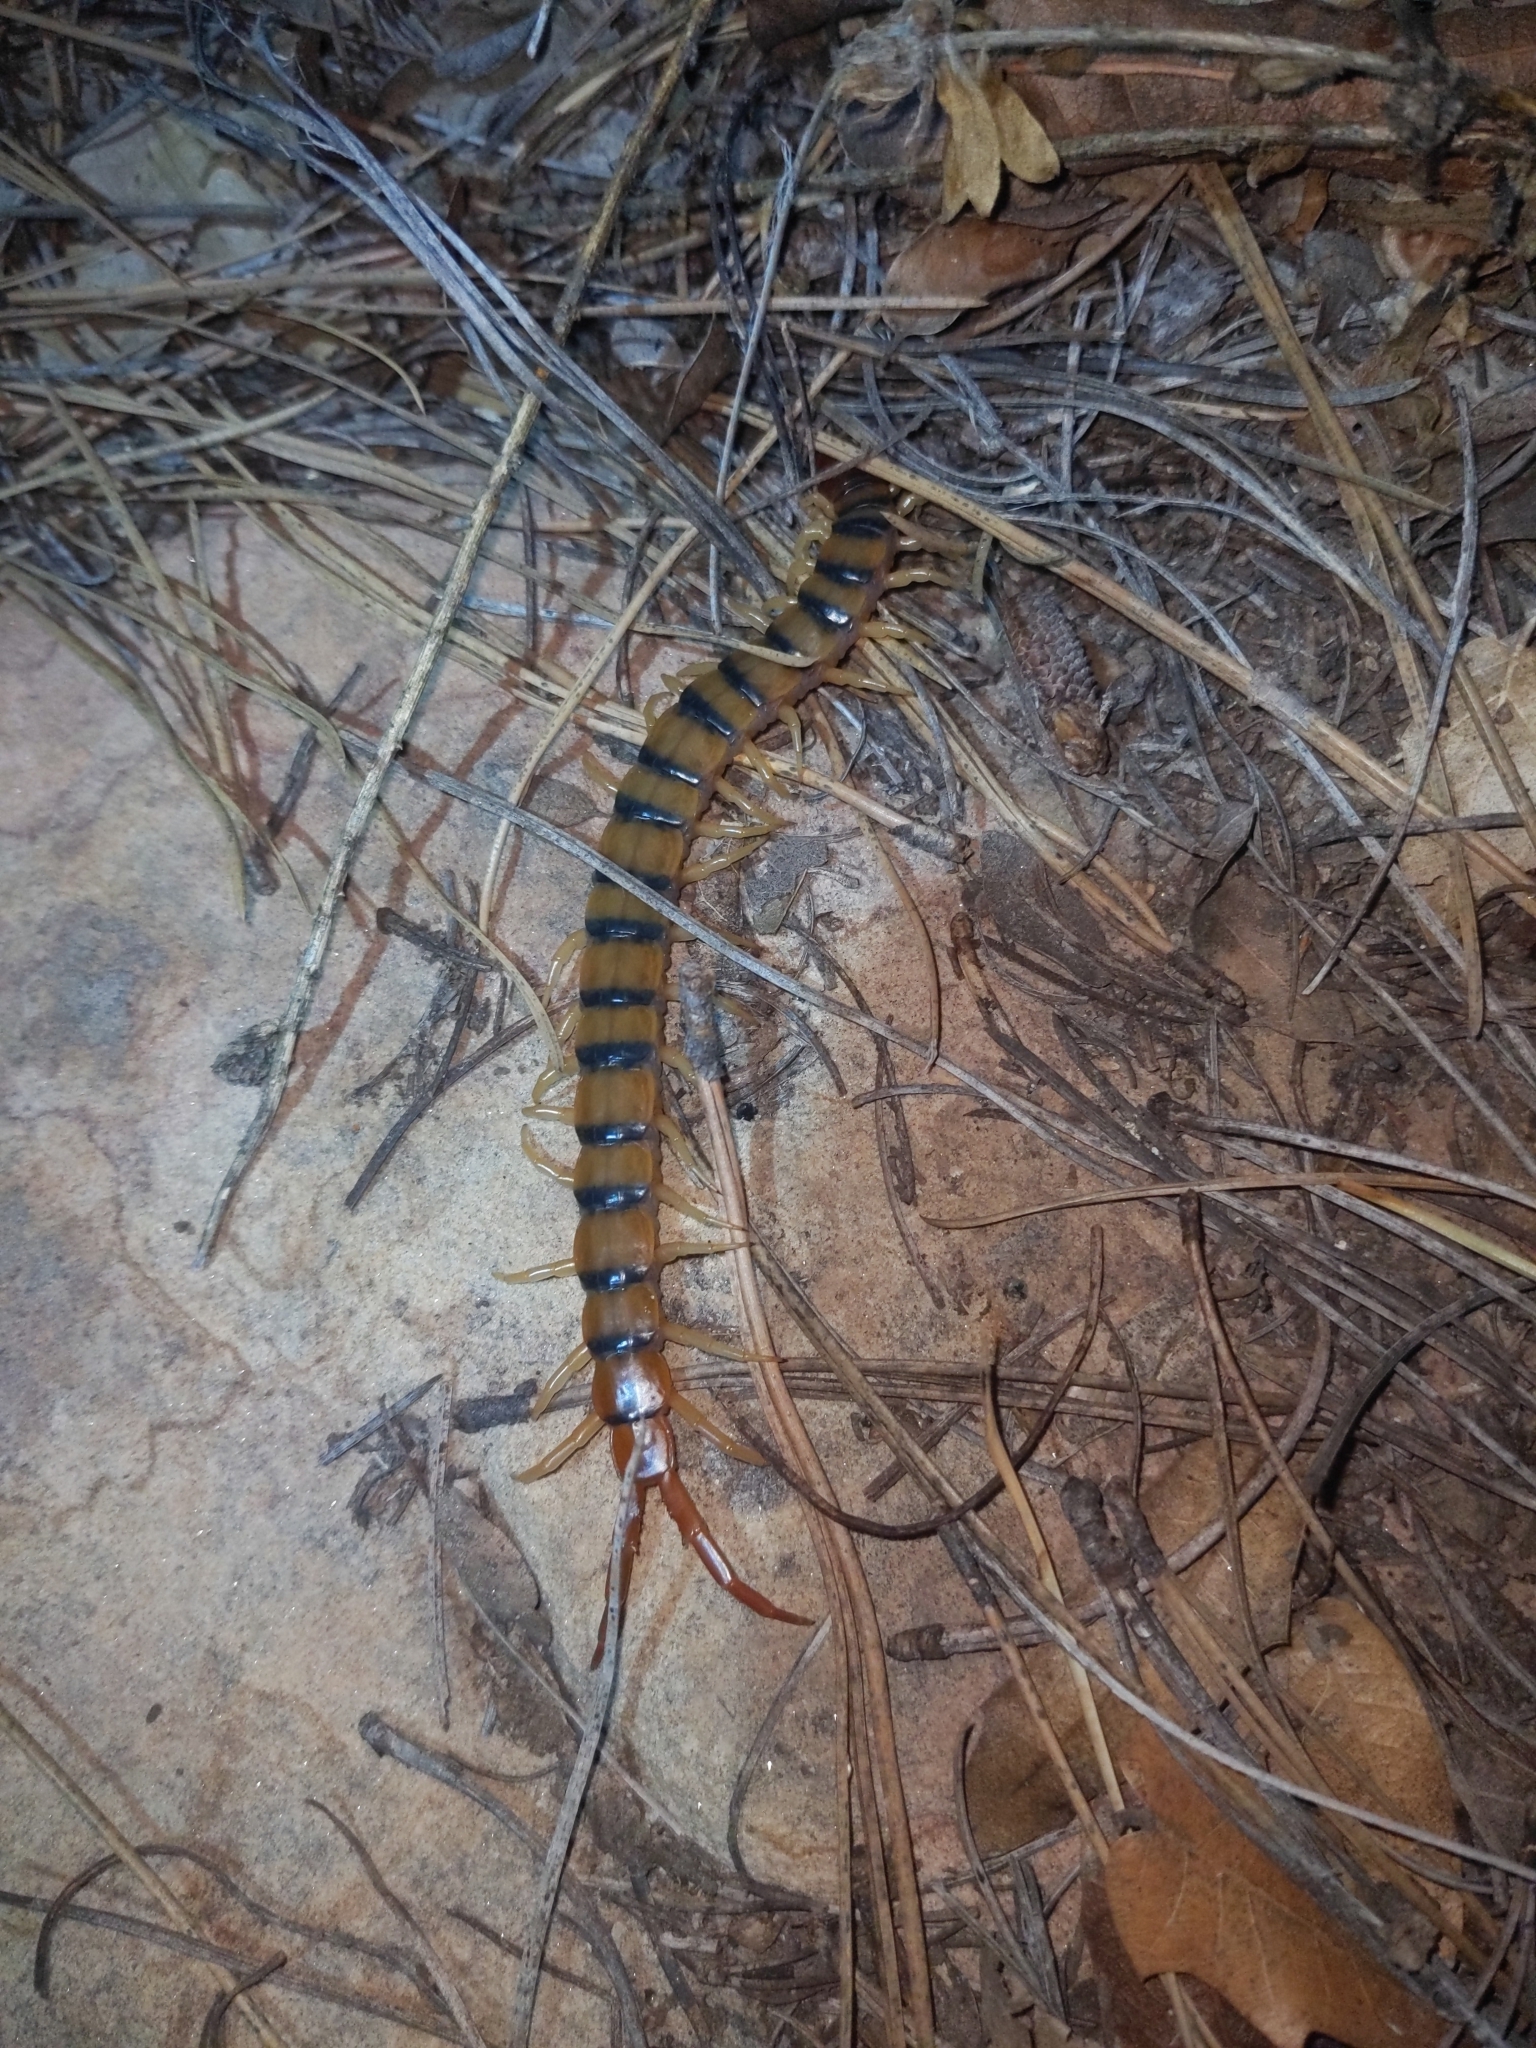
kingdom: Animalia
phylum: Arthropoda
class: Chilopoda
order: Scolopendromorpha
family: Scolopendridae
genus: Scolopendra
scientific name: Scolopendra polymorpha
